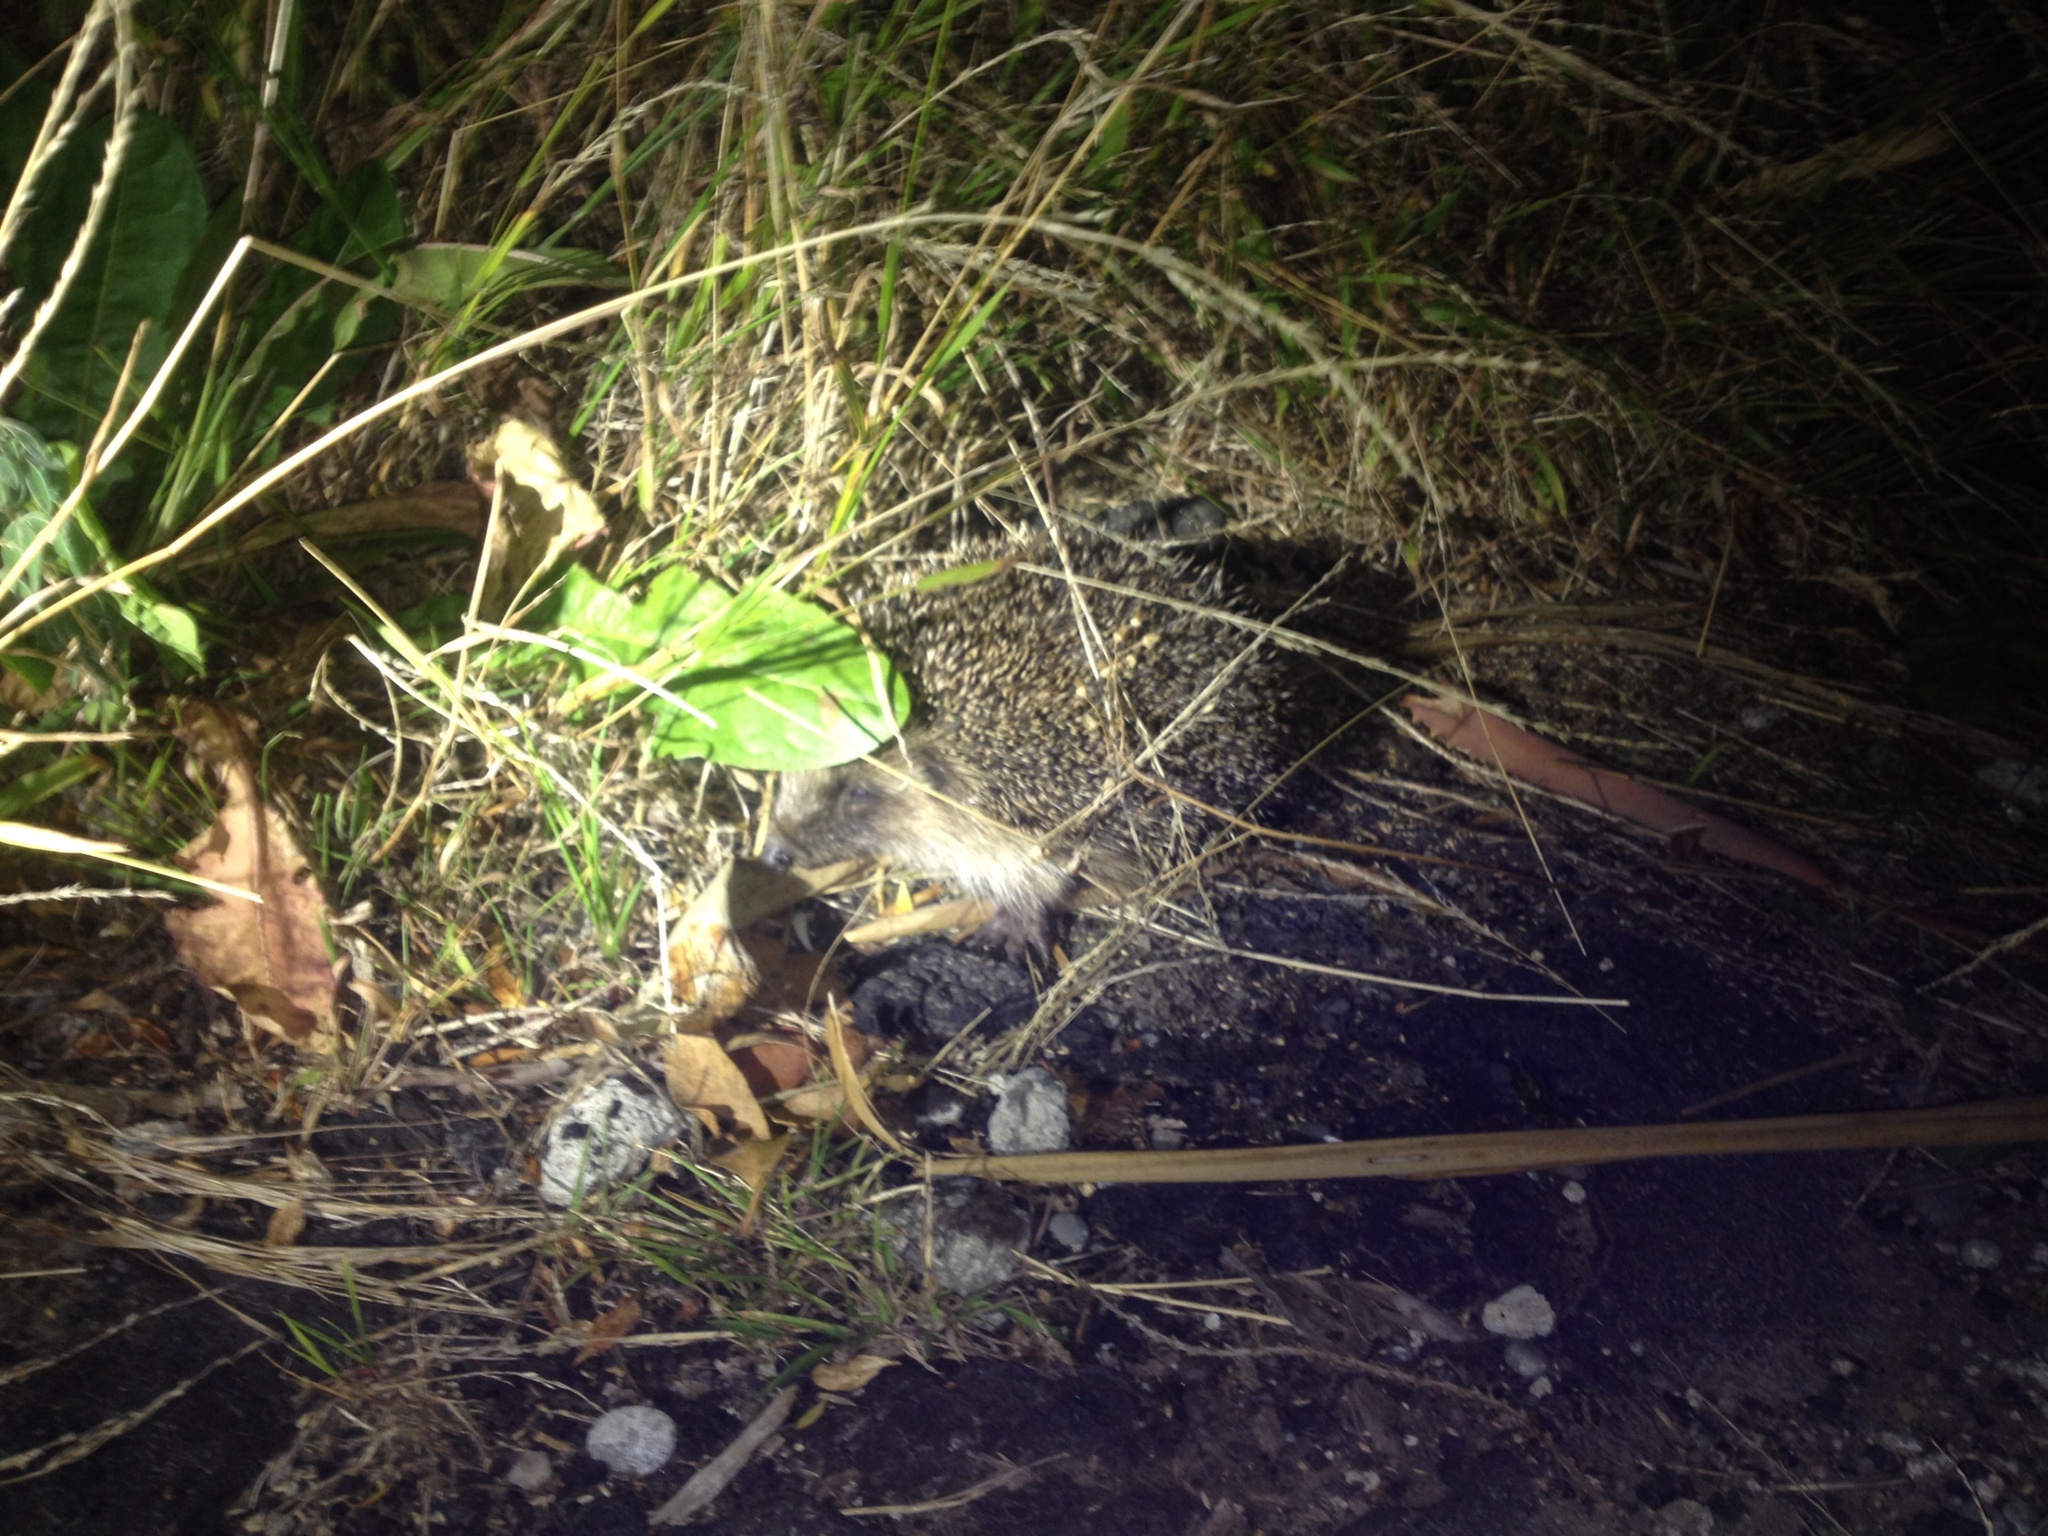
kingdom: Animalia
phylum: Chordata
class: Mammalia
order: Erinaceomorpha
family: Erinaceidae
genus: Erinaceus
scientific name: Erinaceus europaeus
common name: West european hedgehog
